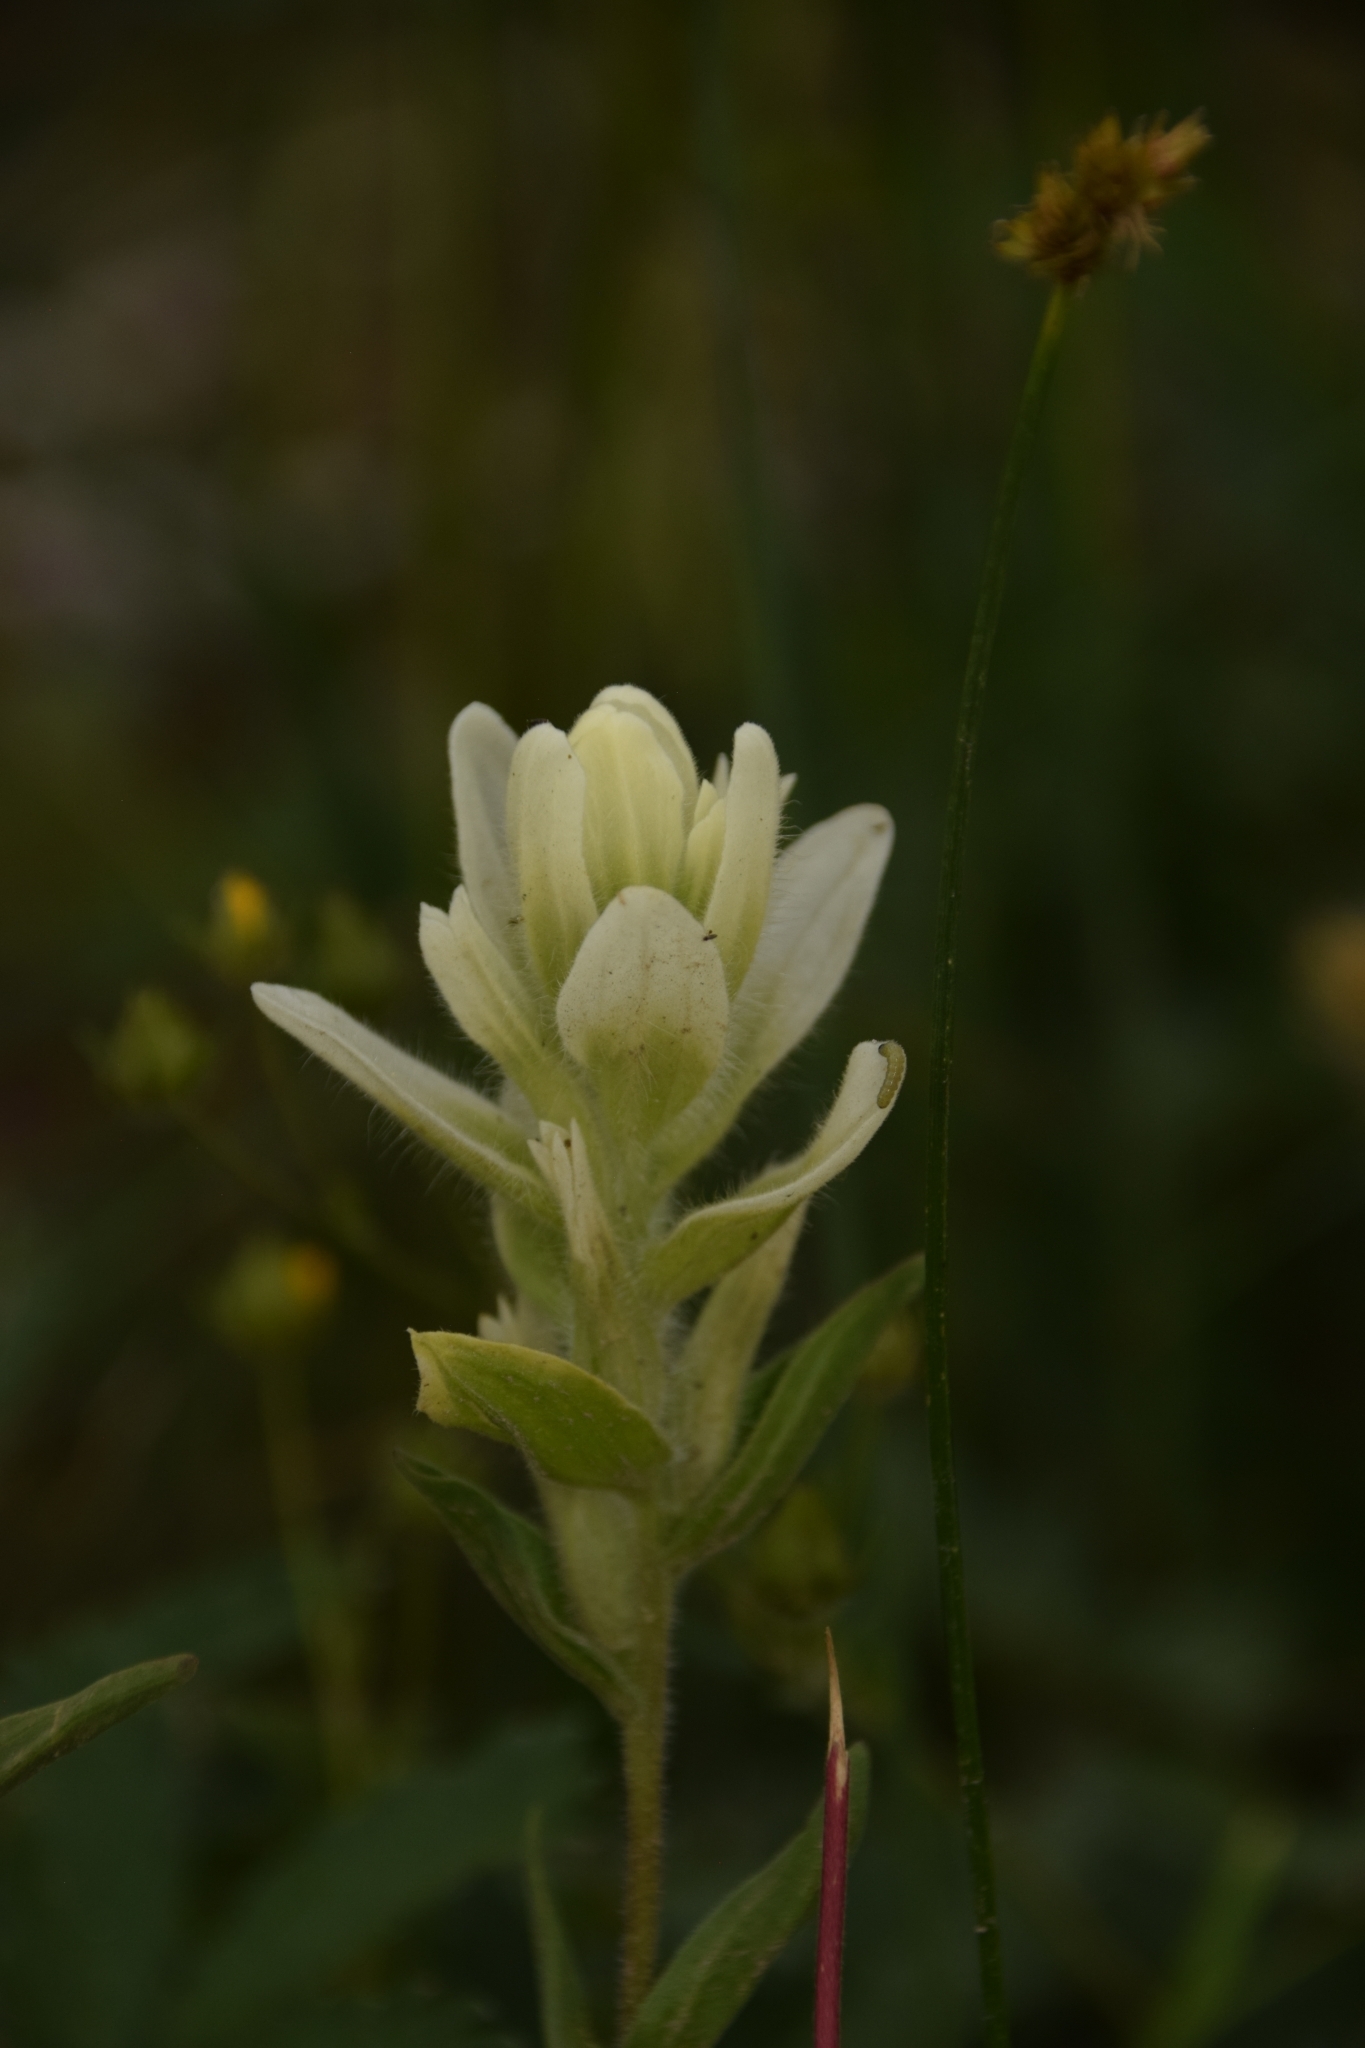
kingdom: Plantae
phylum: Tracheophyta
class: Magnoliopsida
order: Lamiales
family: Orobanchaceae
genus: Castilleja
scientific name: Castilleja septentrionalis
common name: Northeastern paintbrush
